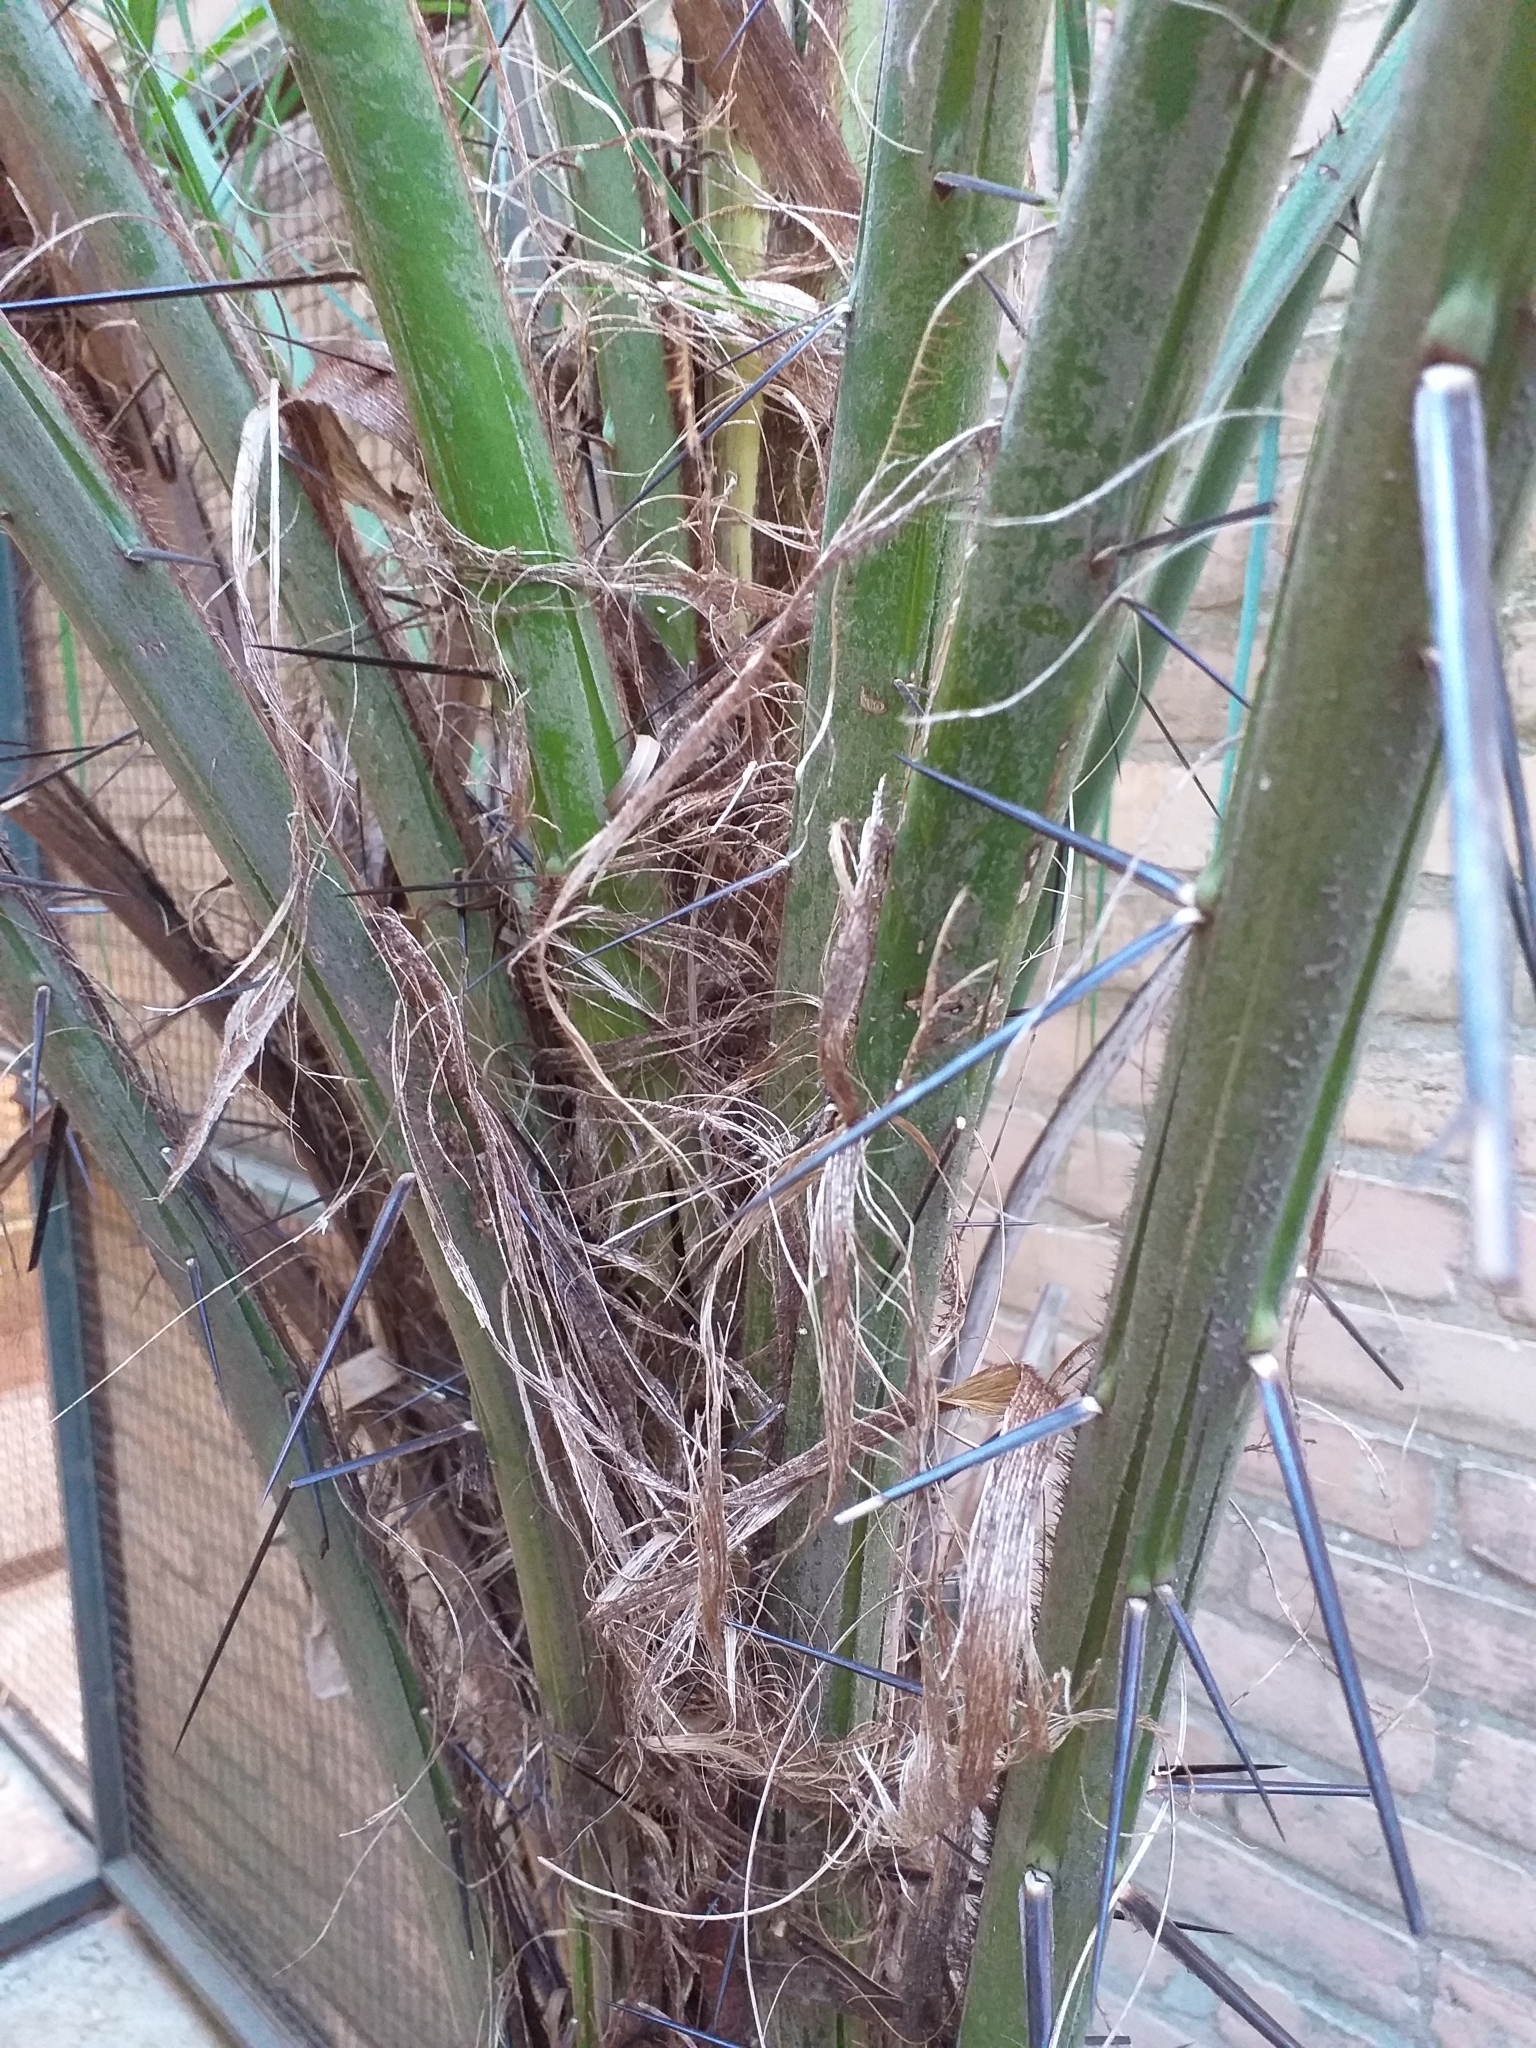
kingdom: Plantae
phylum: Tracheophyta
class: Liliopsida
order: Arecales
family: Arecaceae
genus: Acrocomia
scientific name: Acrocomia aculeata
